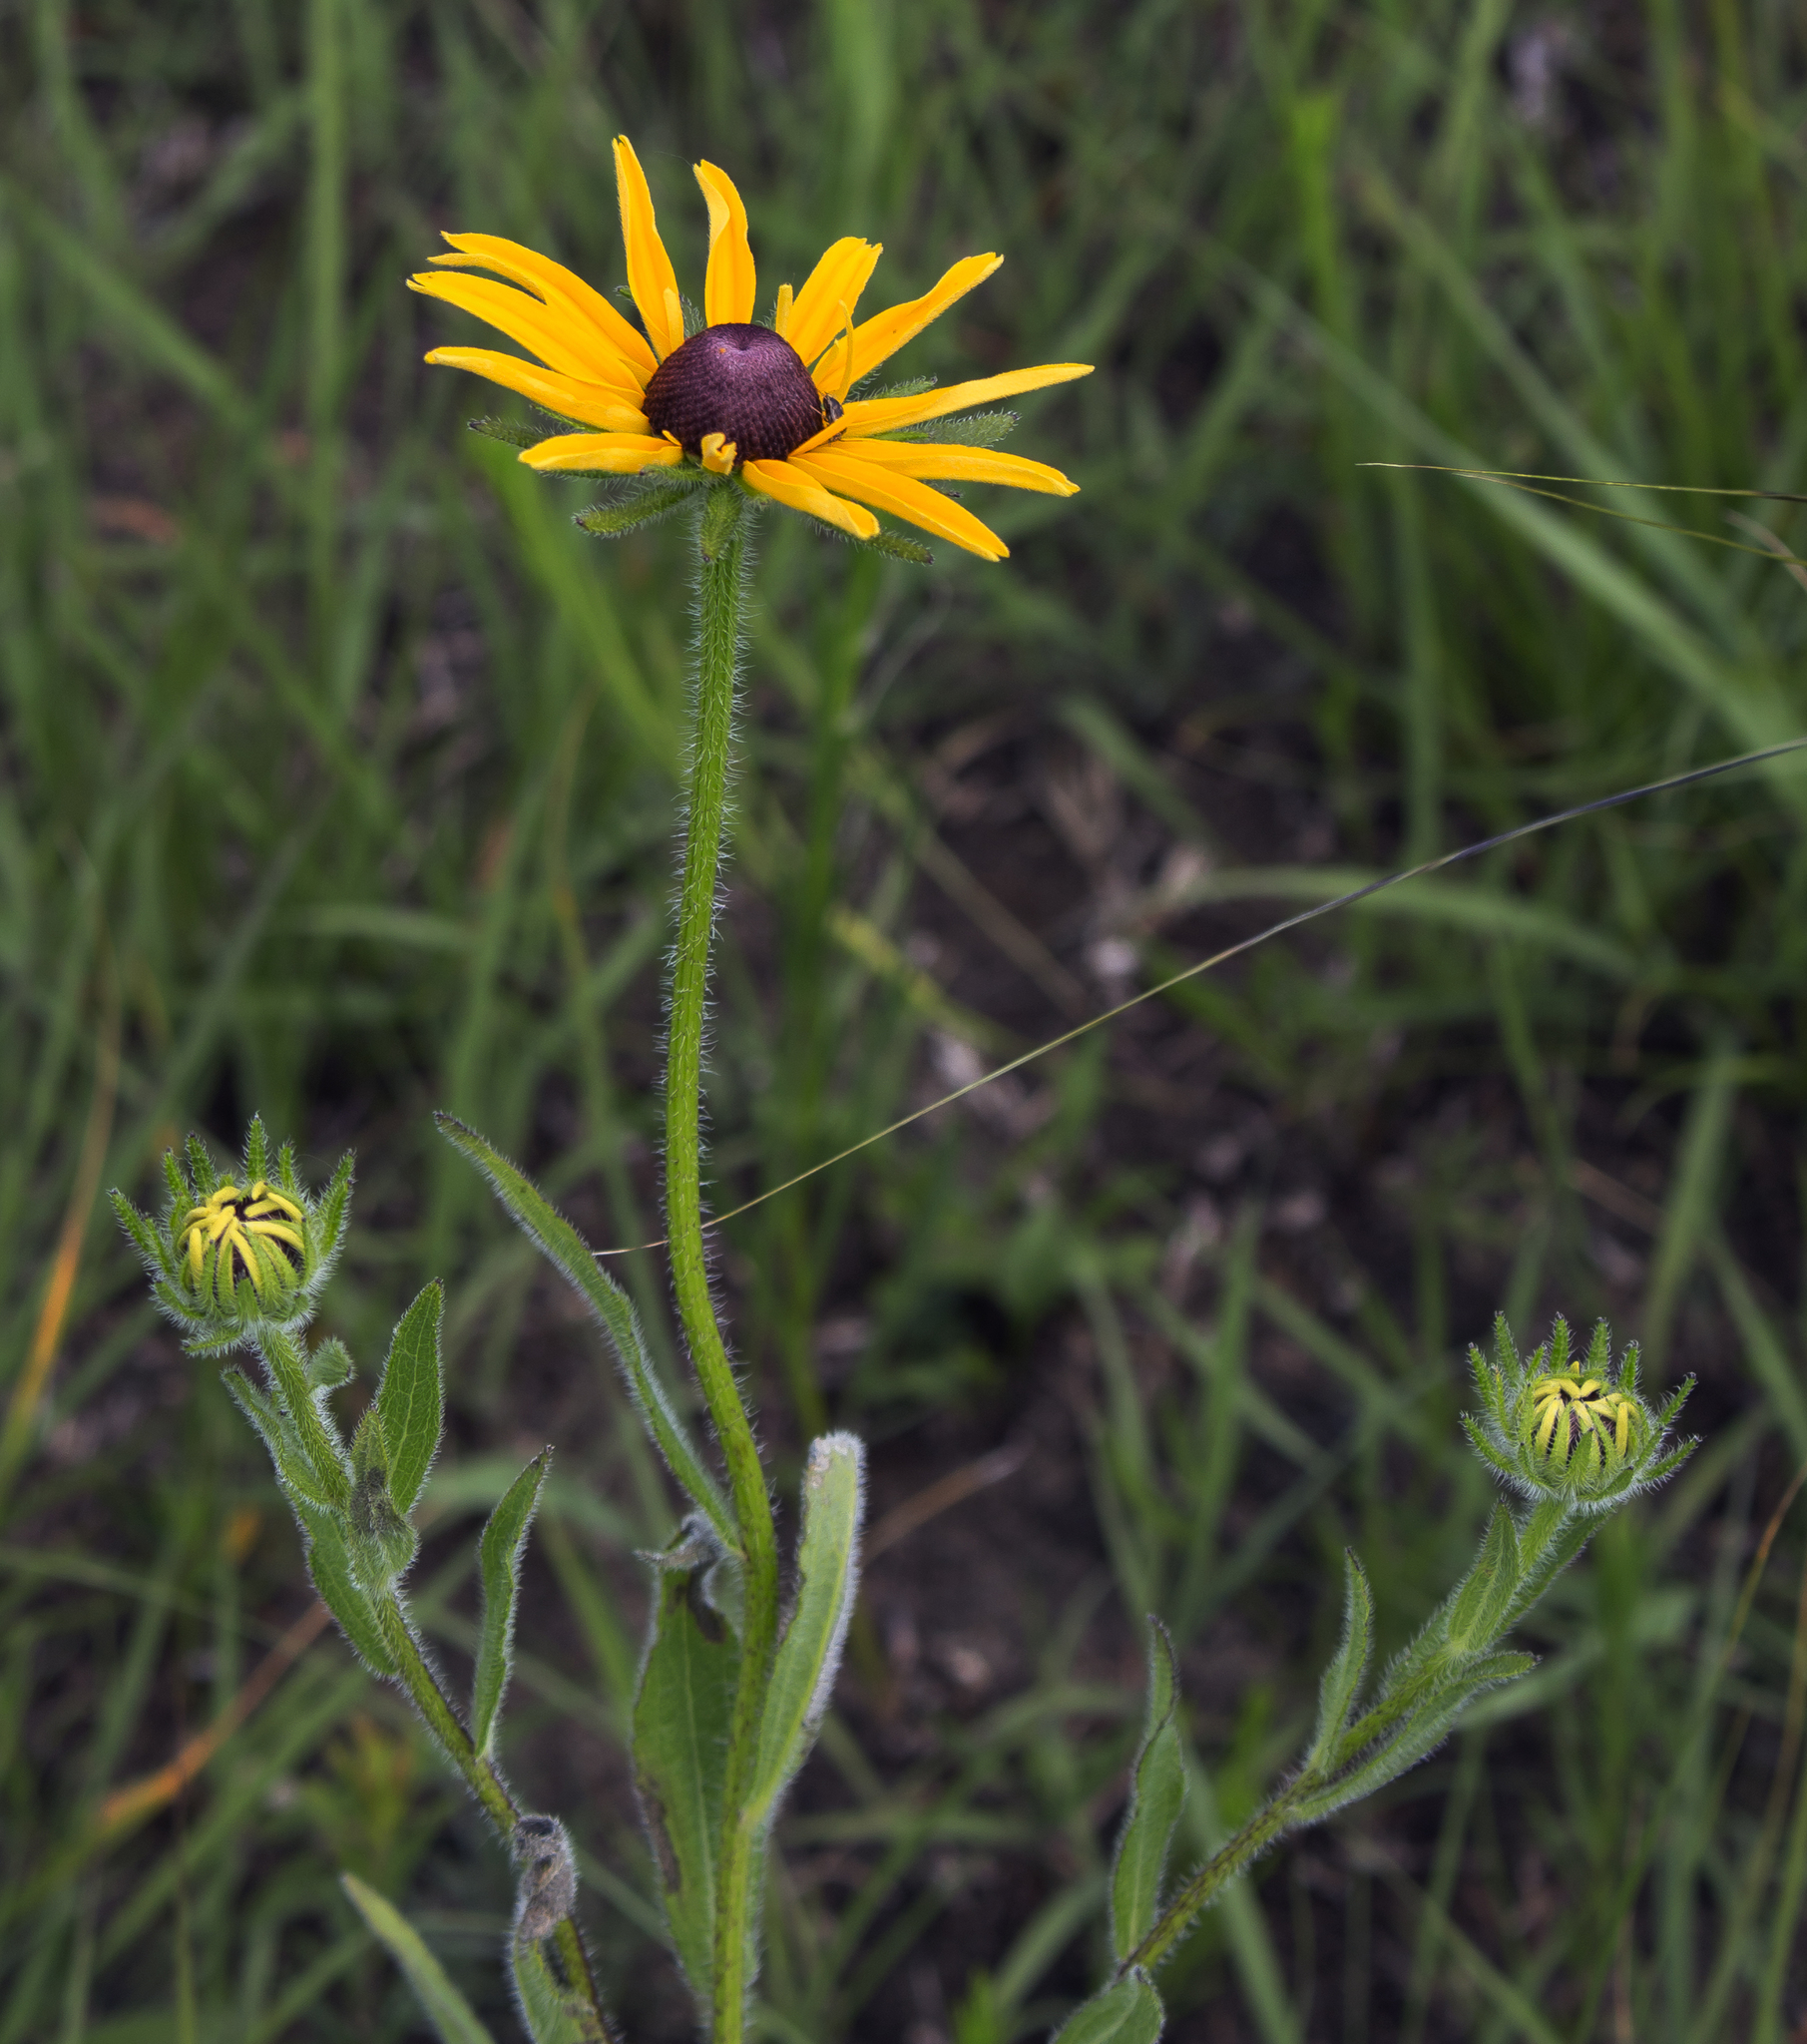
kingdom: Plantae
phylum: Tracheophyta
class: Magnoliopsida
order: Asterales
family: Asteraceae
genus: Rudbeckia
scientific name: Rudbeckia hirta
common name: Black-eyed-susan
